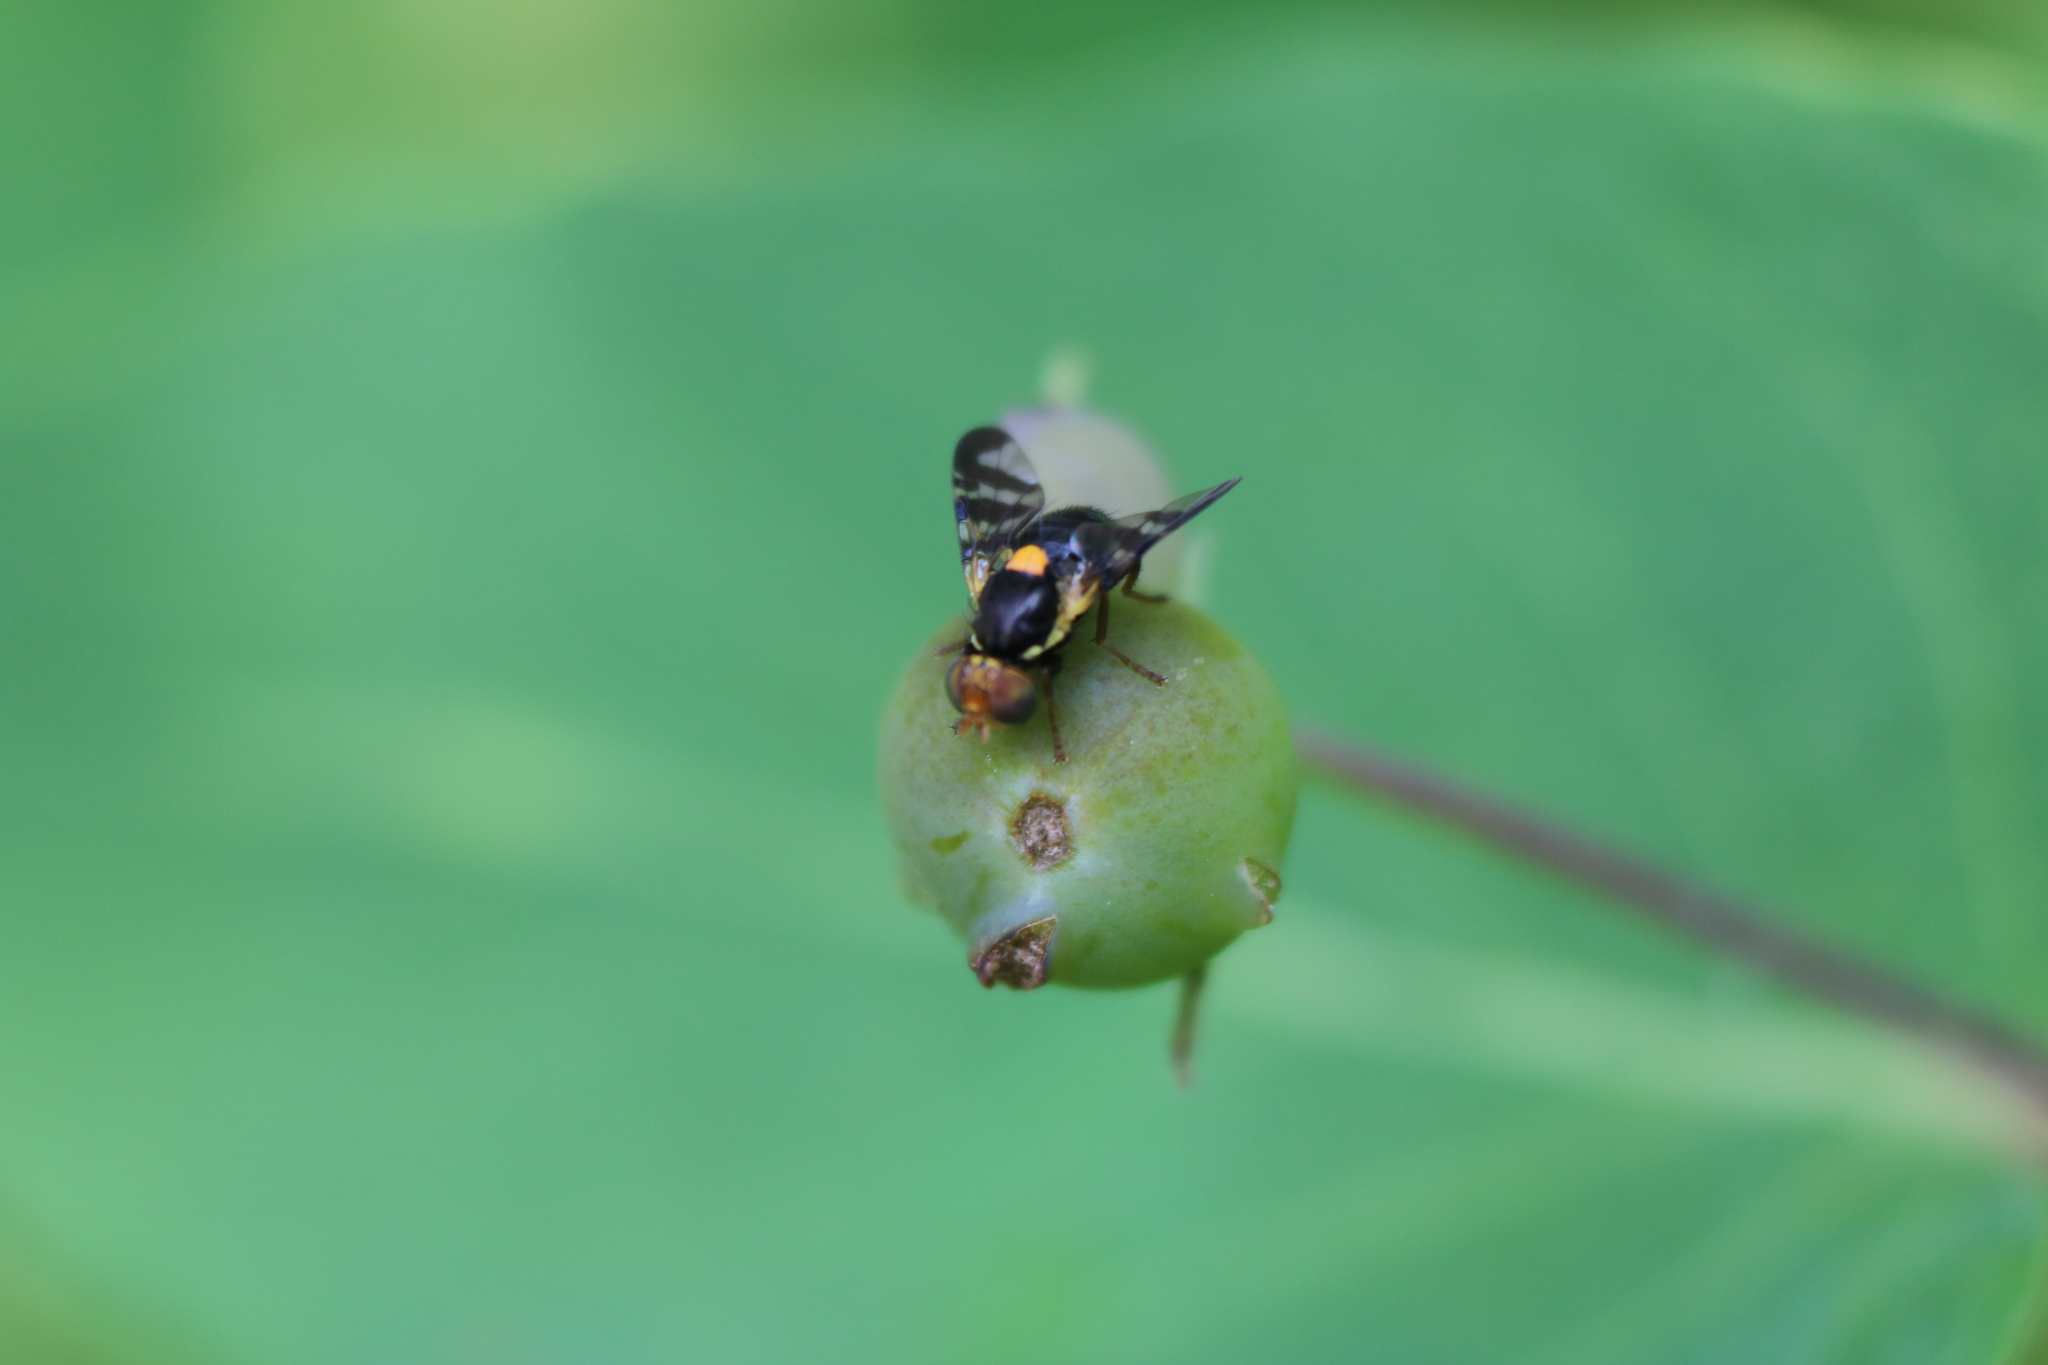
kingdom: Animalia
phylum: Arthropoda
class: Insecta
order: Diptera
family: Tephritidae
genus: Rhagoletis
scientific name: Rhagoletis cerasi
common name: European cherry fruit fly
